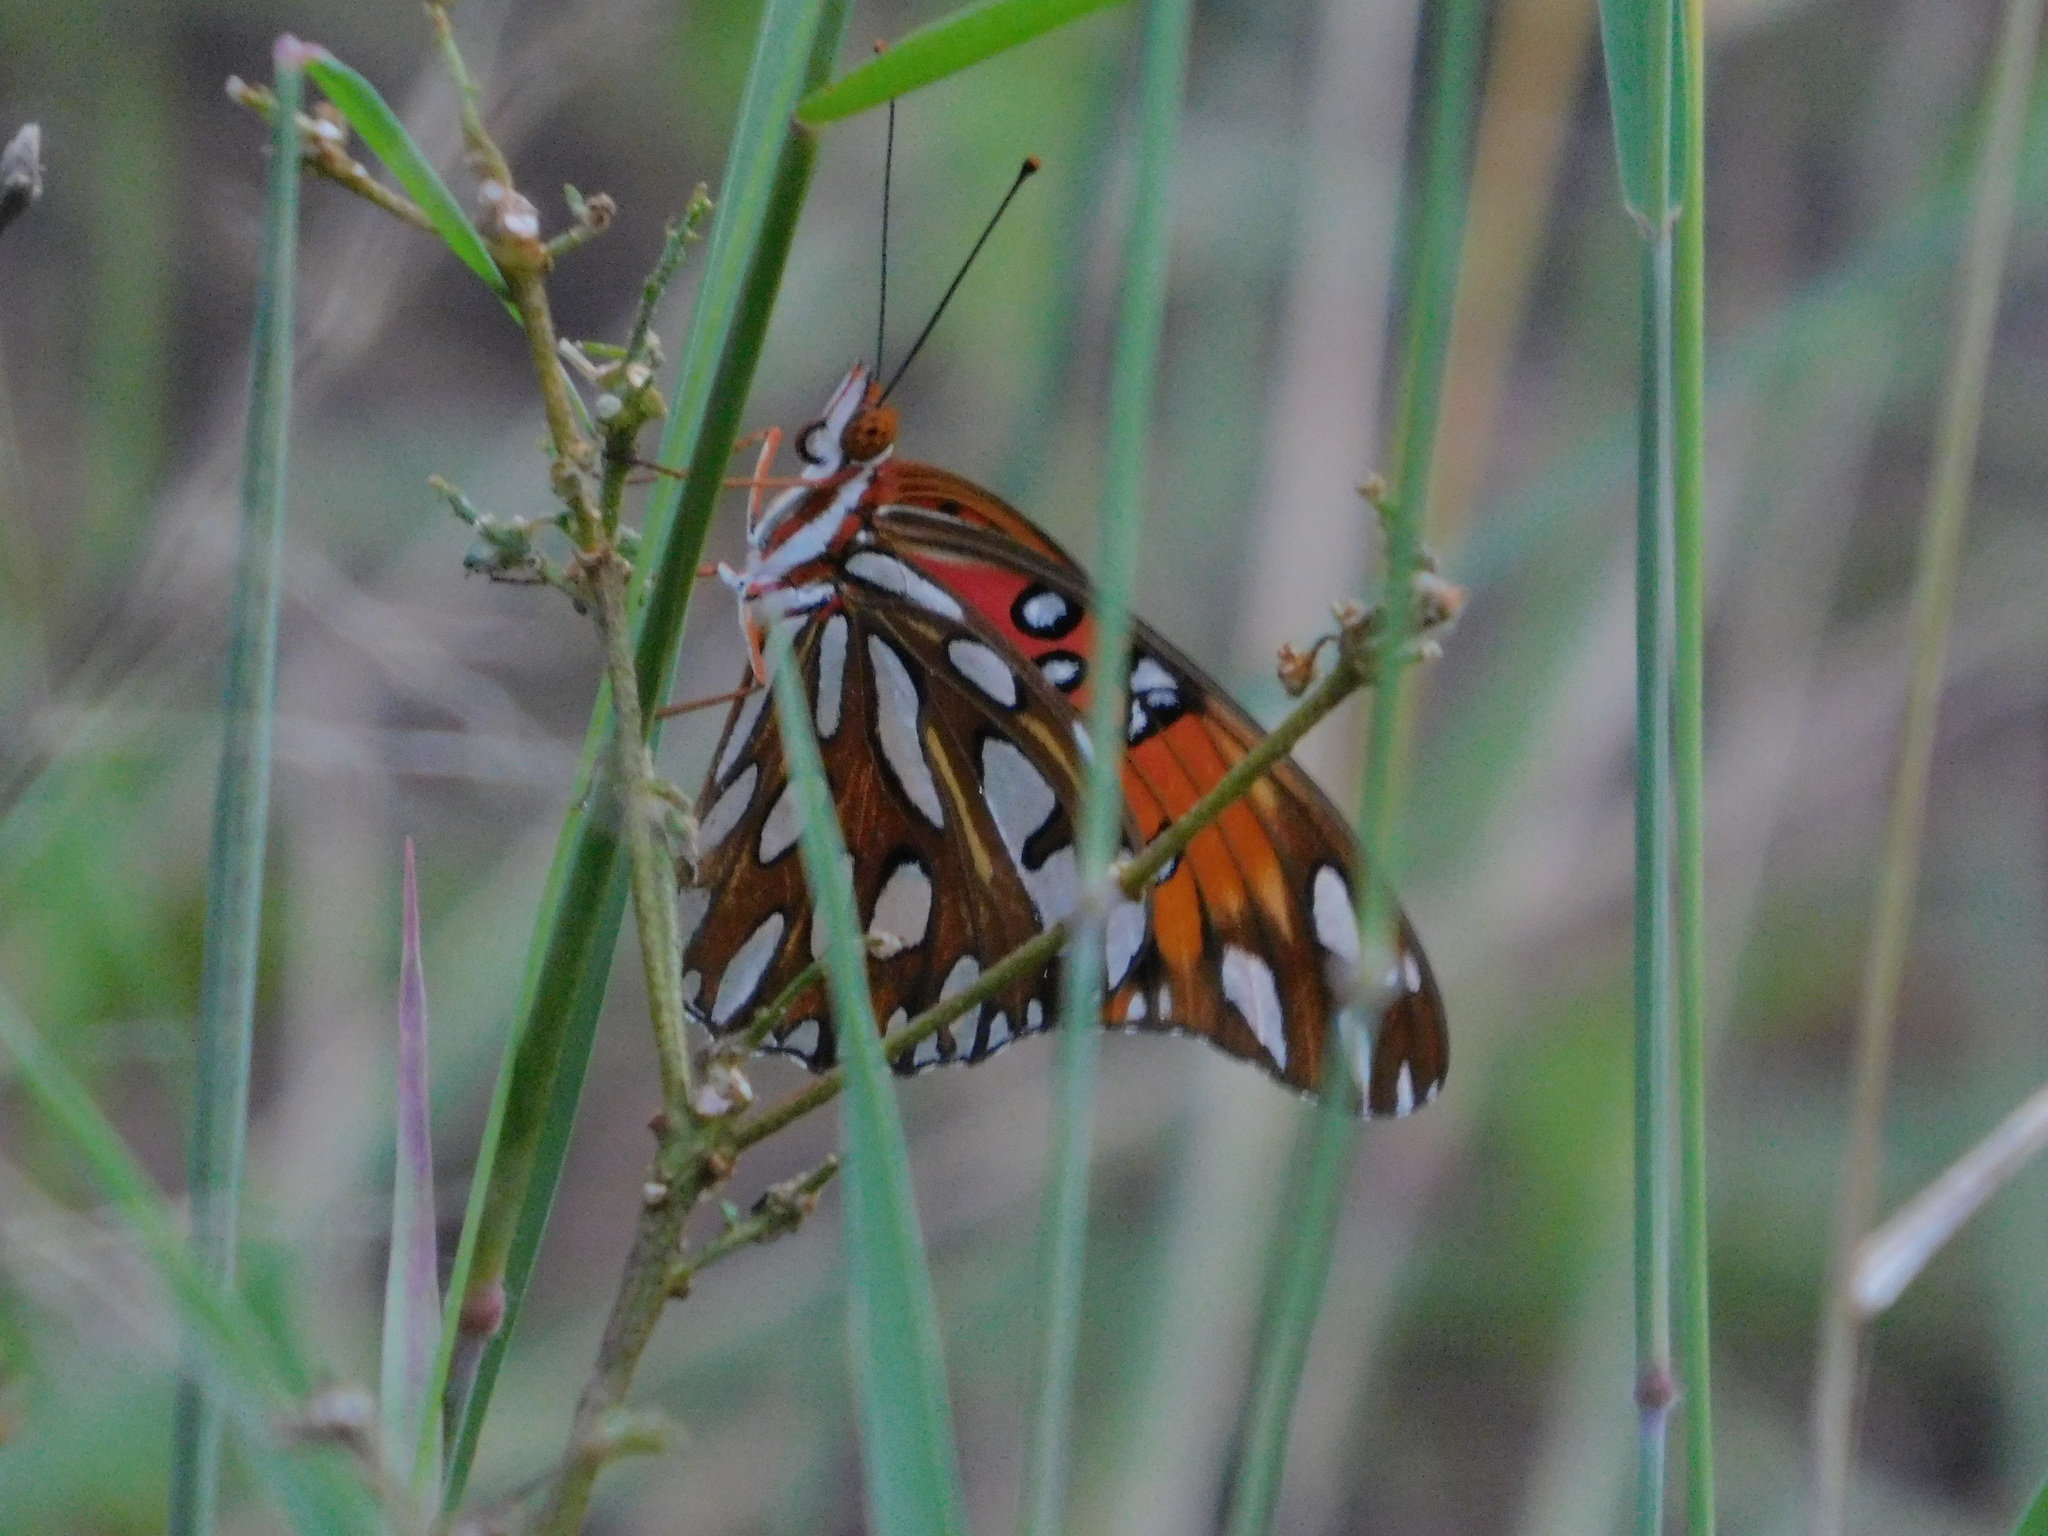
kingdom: Animalia
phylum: Arthropoda
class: Insecta
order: Lepidoptera
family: Nymphalidae
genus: Dione
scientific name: Dione vanillae
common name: Gulf fritillary
